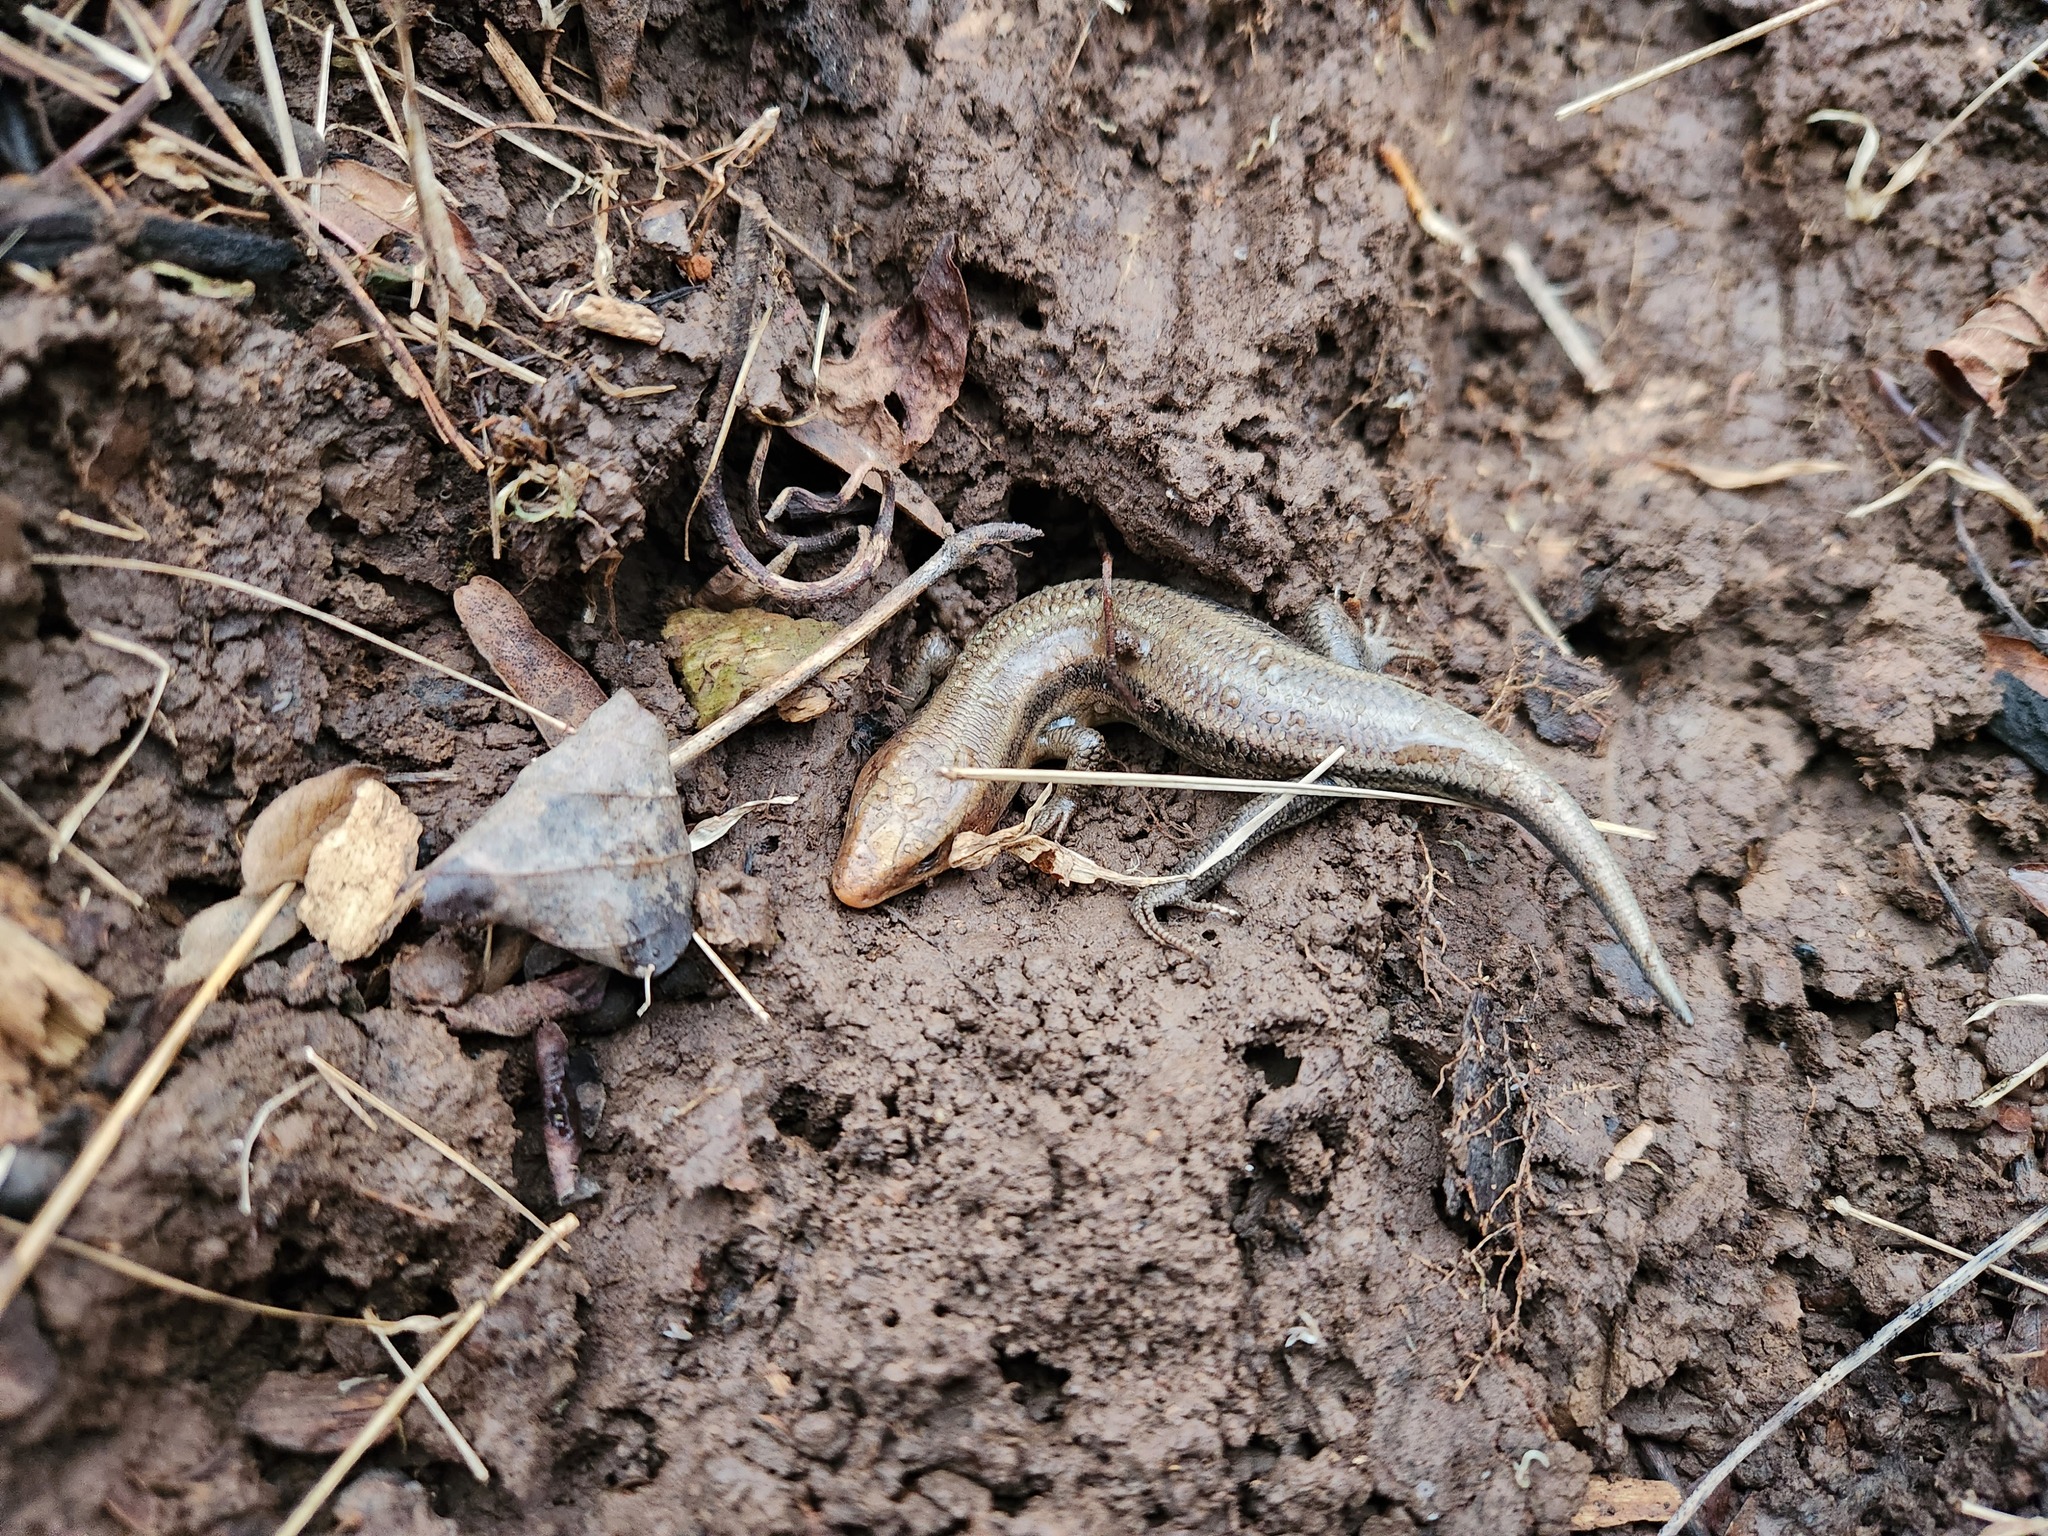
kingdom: Animalia
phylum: Chordata
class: Squamata
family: Scincidae
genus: Plestiodon
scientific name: Plestiodon fasciatus
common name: Five-lined skink
